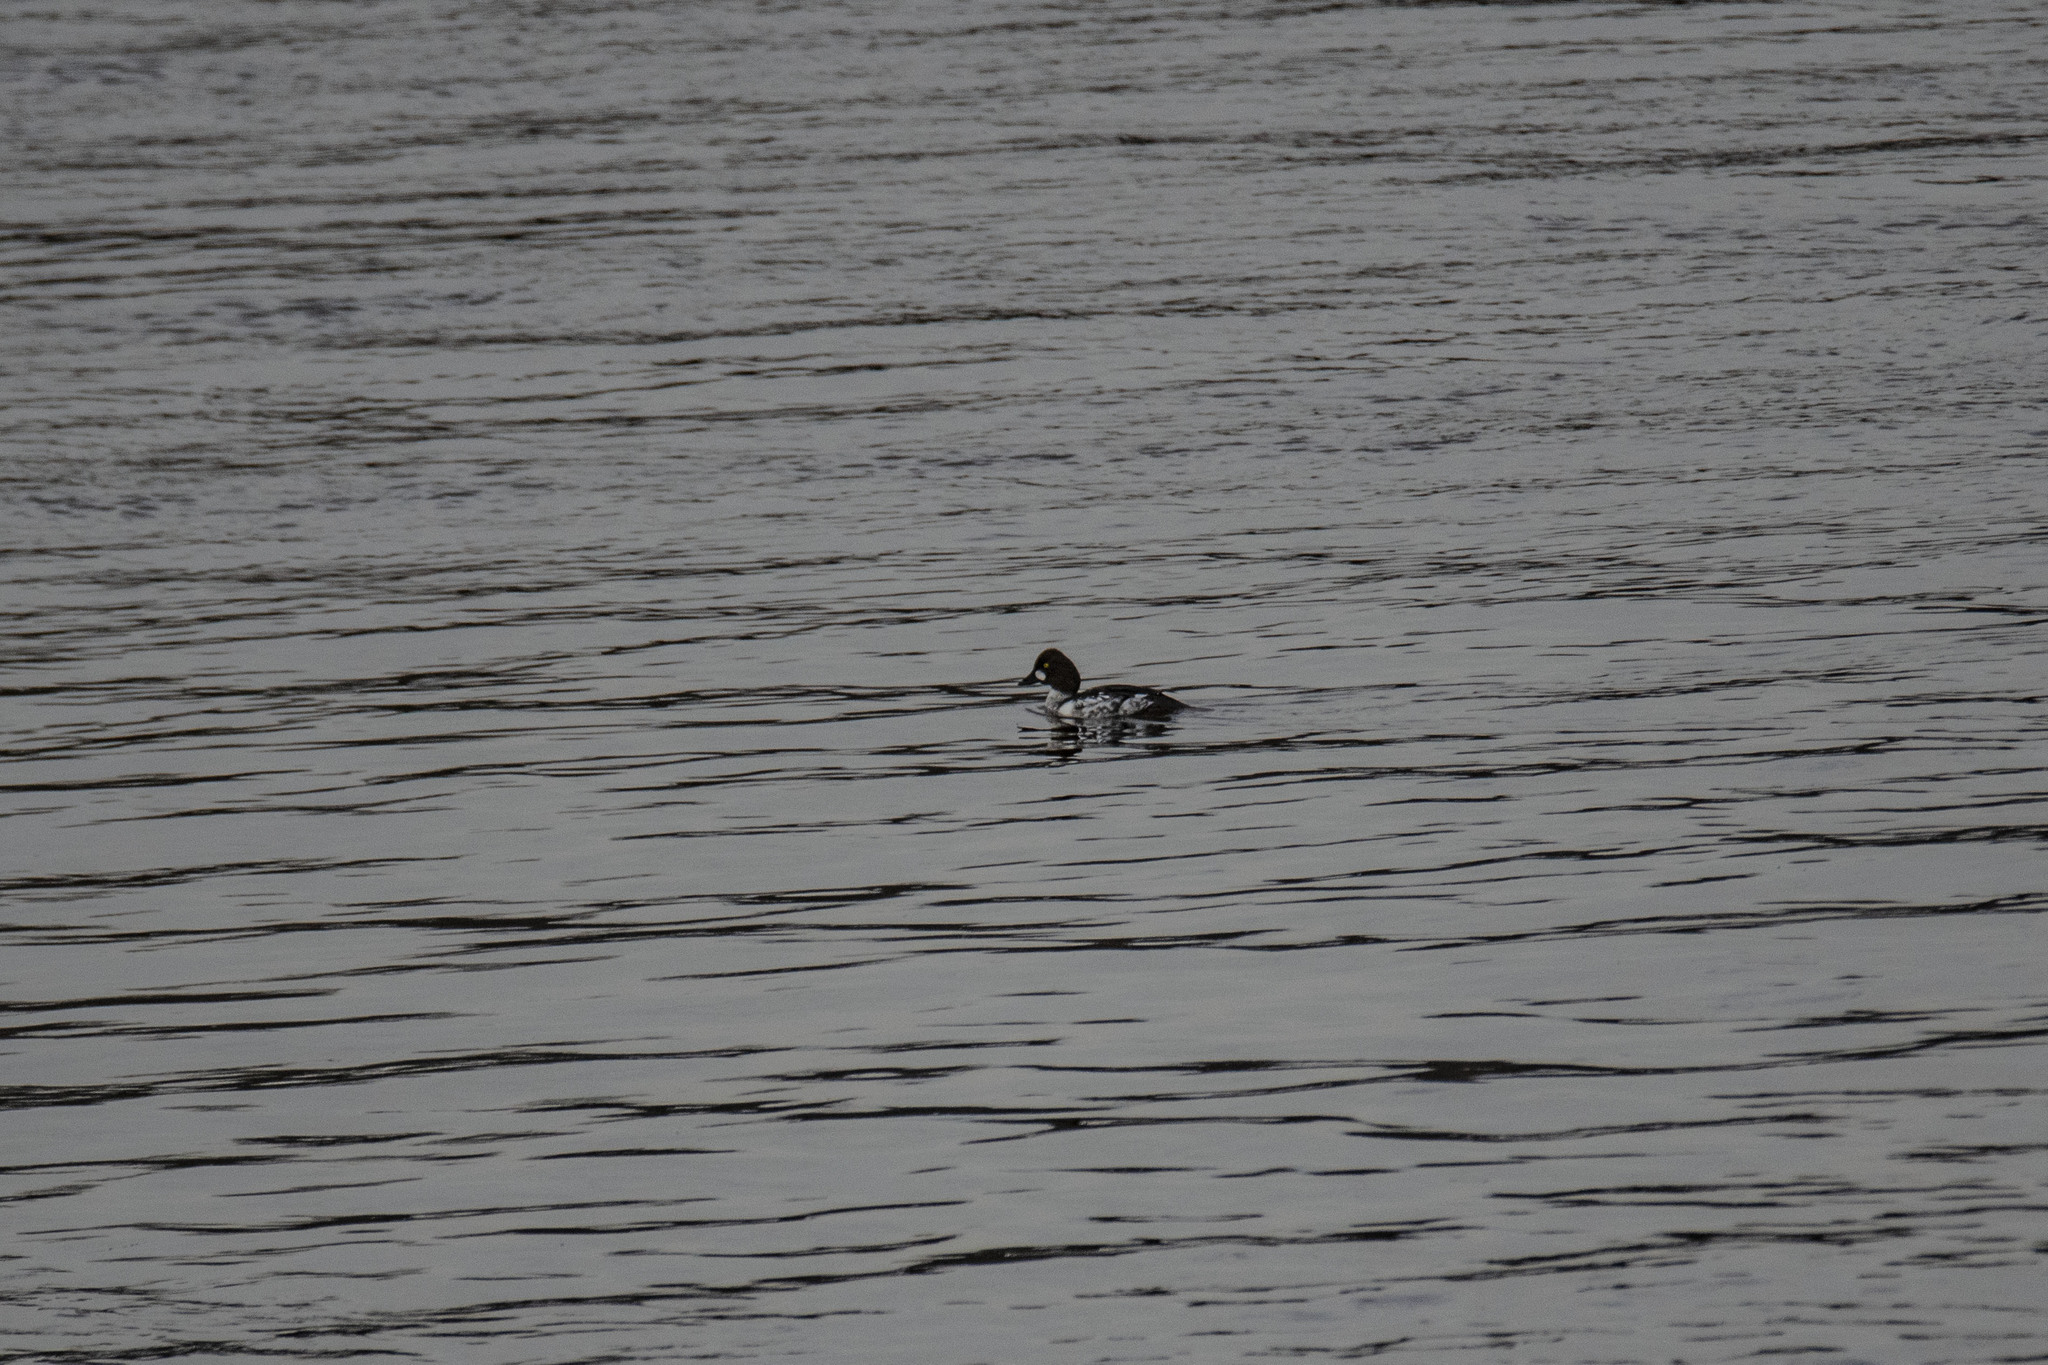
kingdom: Animalia
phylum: Chordata
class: Aves
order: Anseriformes
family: Anatidae
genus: Bucephala
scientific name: Bucephala clangula
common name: Common goldeneye
